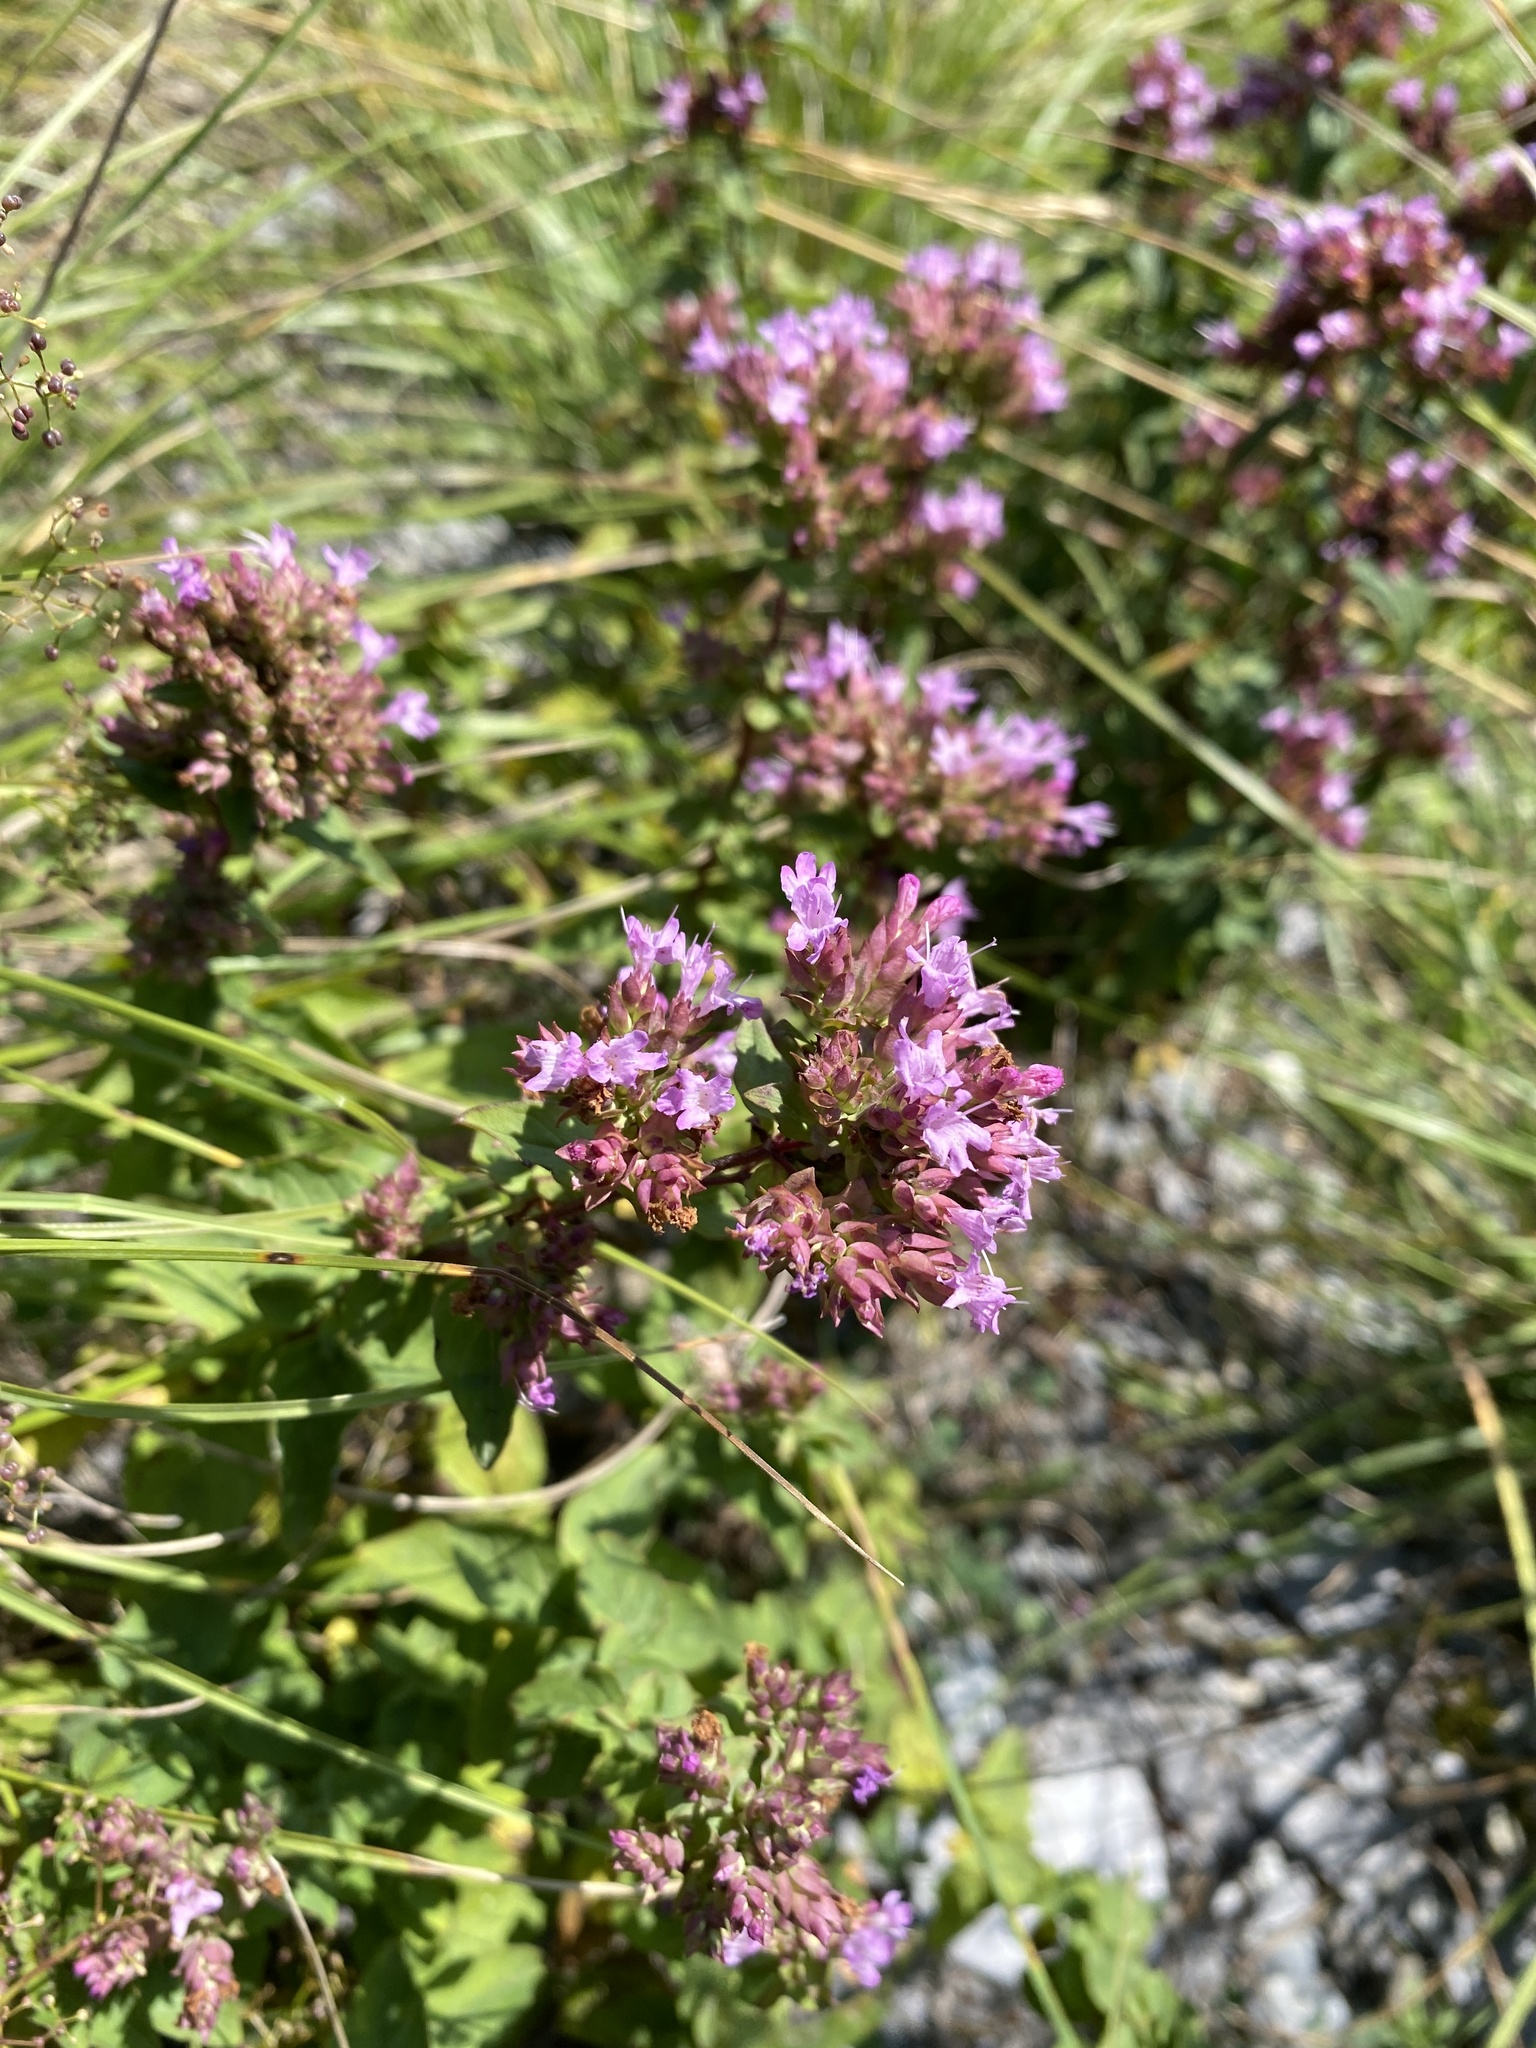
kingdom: Plantae
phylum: Tracheophyta
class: Magnoliopsida
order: Lamiales
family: Lamiaceae
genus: Origanum
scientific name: Origanum vulgare
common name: Wild marjoram
